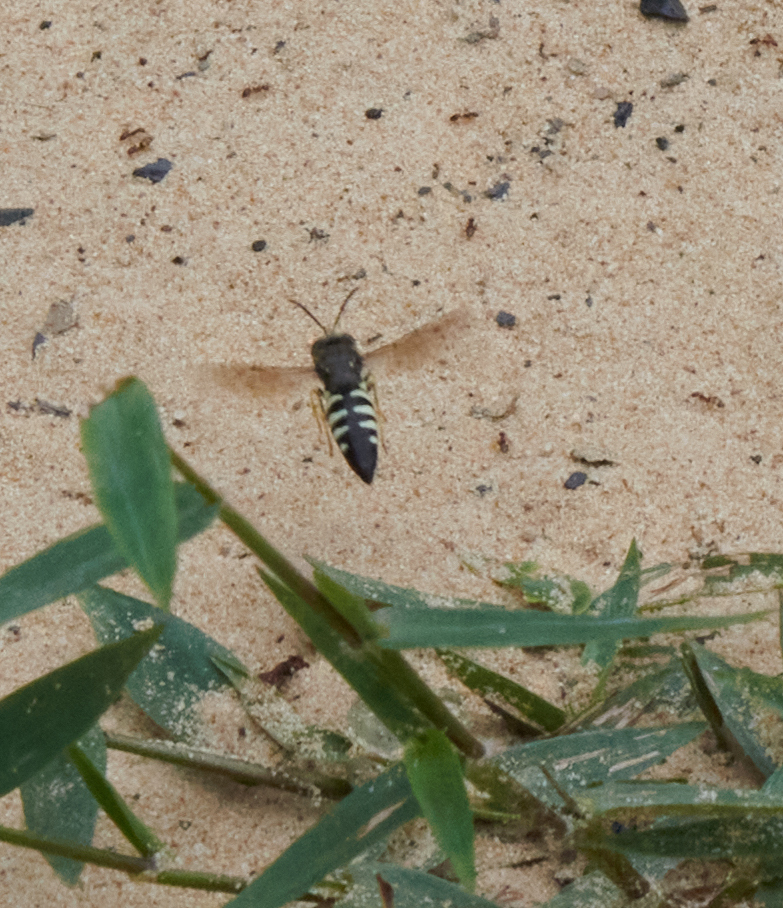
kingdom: Animalia
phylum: Arthropoda
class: Insecta
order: Hymenoptera
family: Crabronidae
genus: Bicyrtes
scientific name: Bicyrtes quadrifasciatus
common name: Four-banded stink bug hunter wasp
